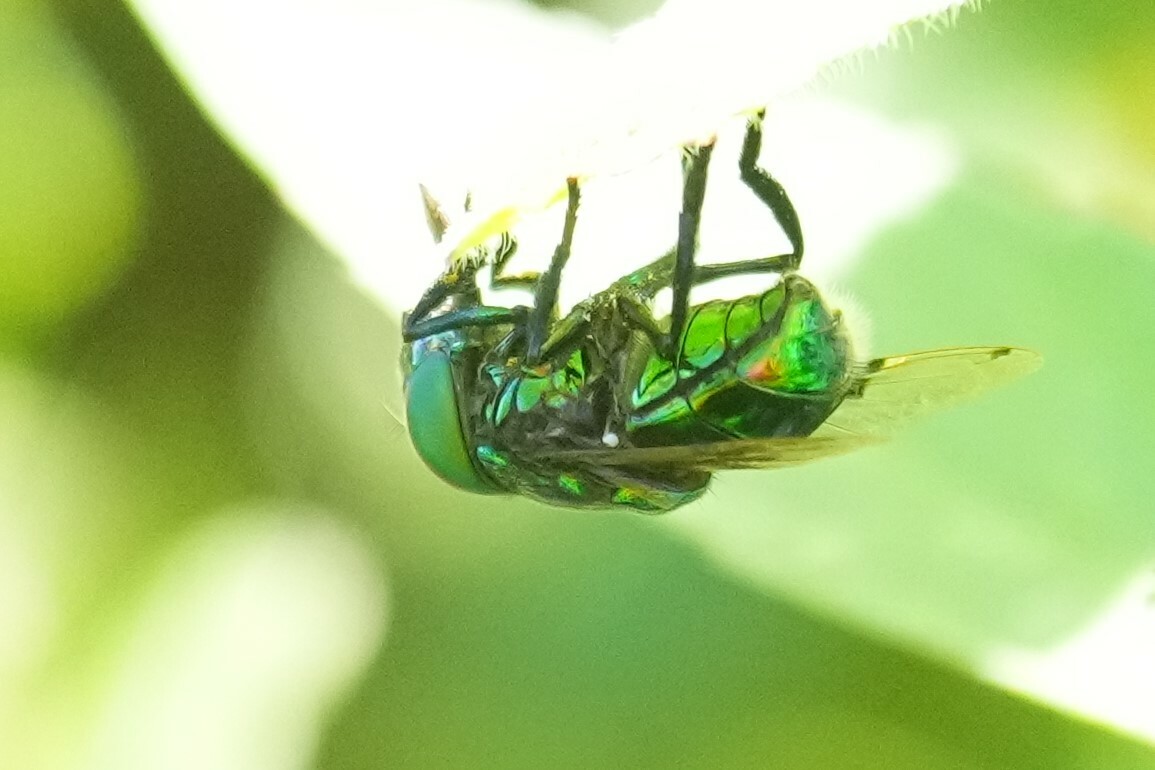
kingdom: Animalia
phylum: Arthropoda
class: Insecta
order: Diptera
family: Syrphidae
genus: Ornidia
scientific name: Ornidia obesa
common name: Syrphid fly
